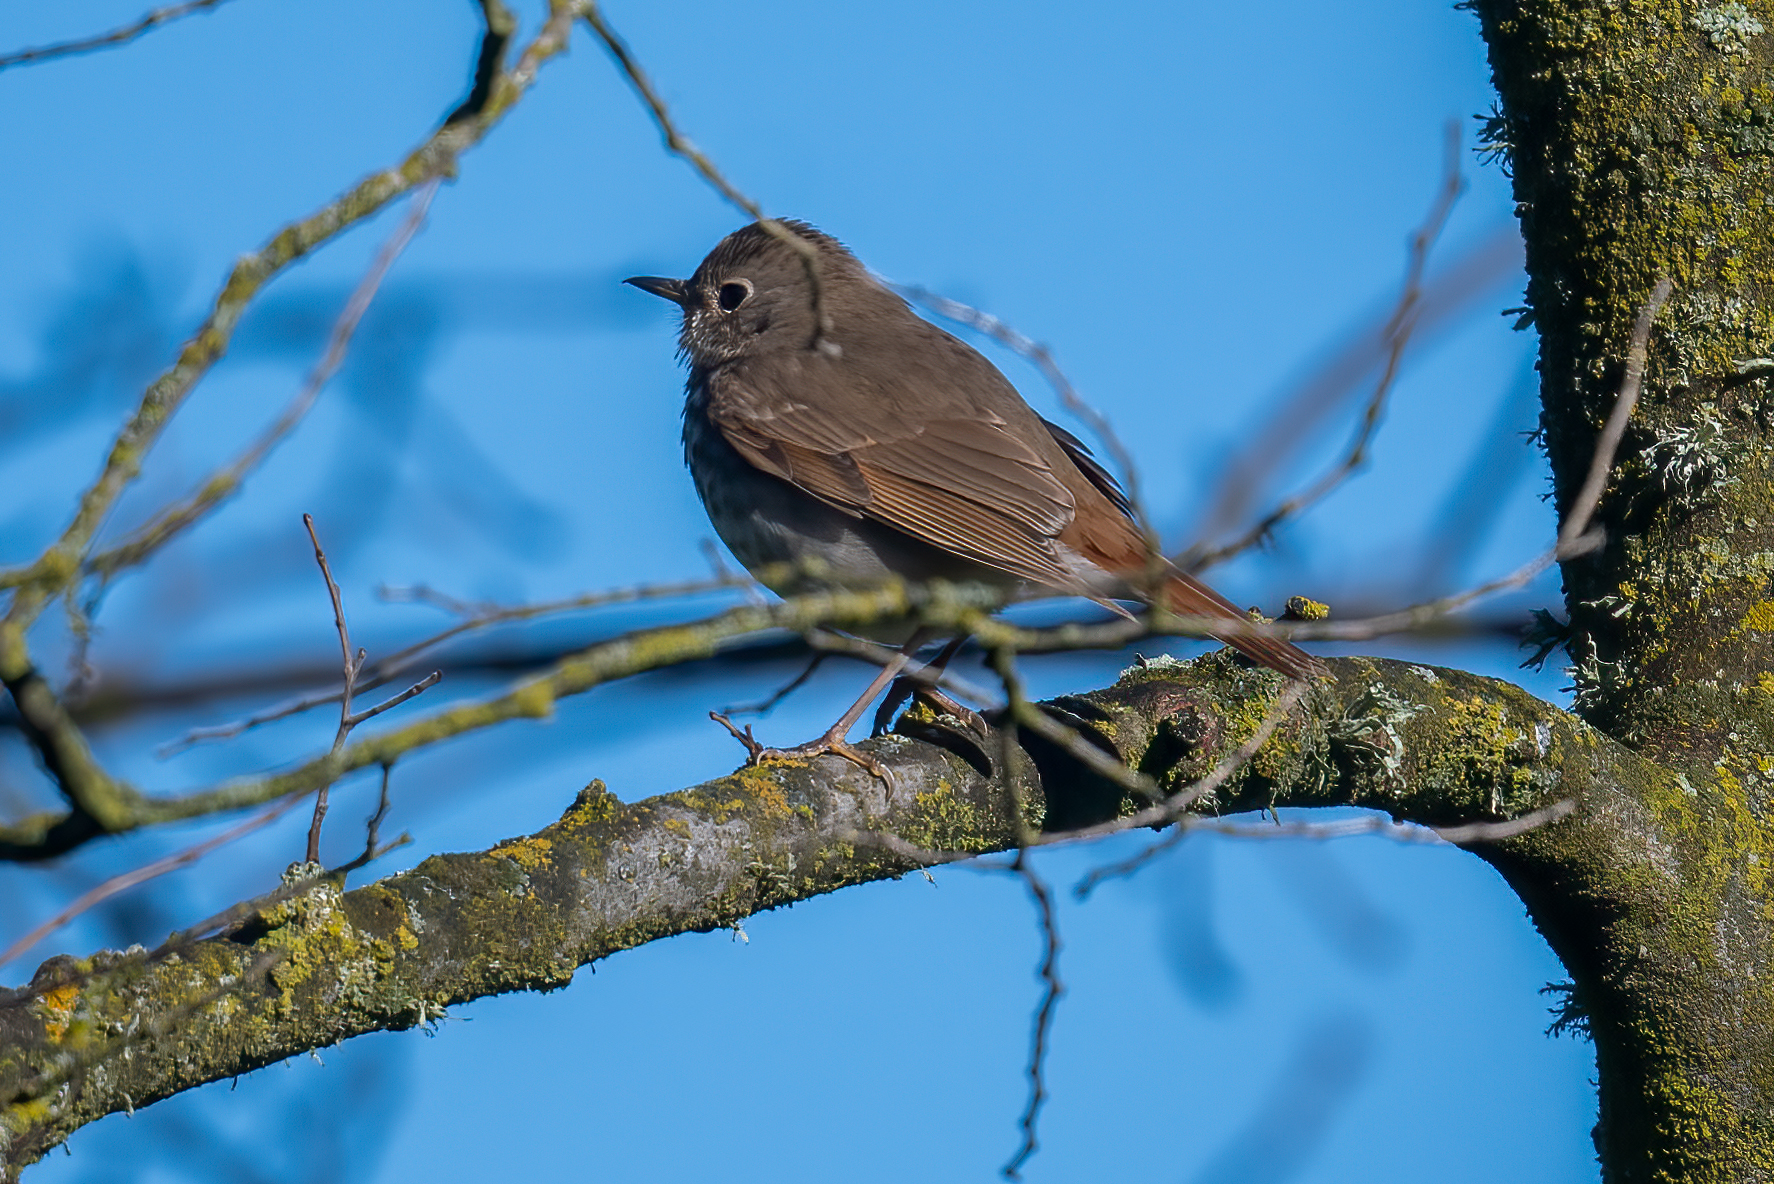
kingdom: Animalia
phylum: Chordata
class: Aves
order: Passeriformes
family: Turdidae
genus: Catharus
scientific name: Catharus guttatus
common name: Hermit thrush
